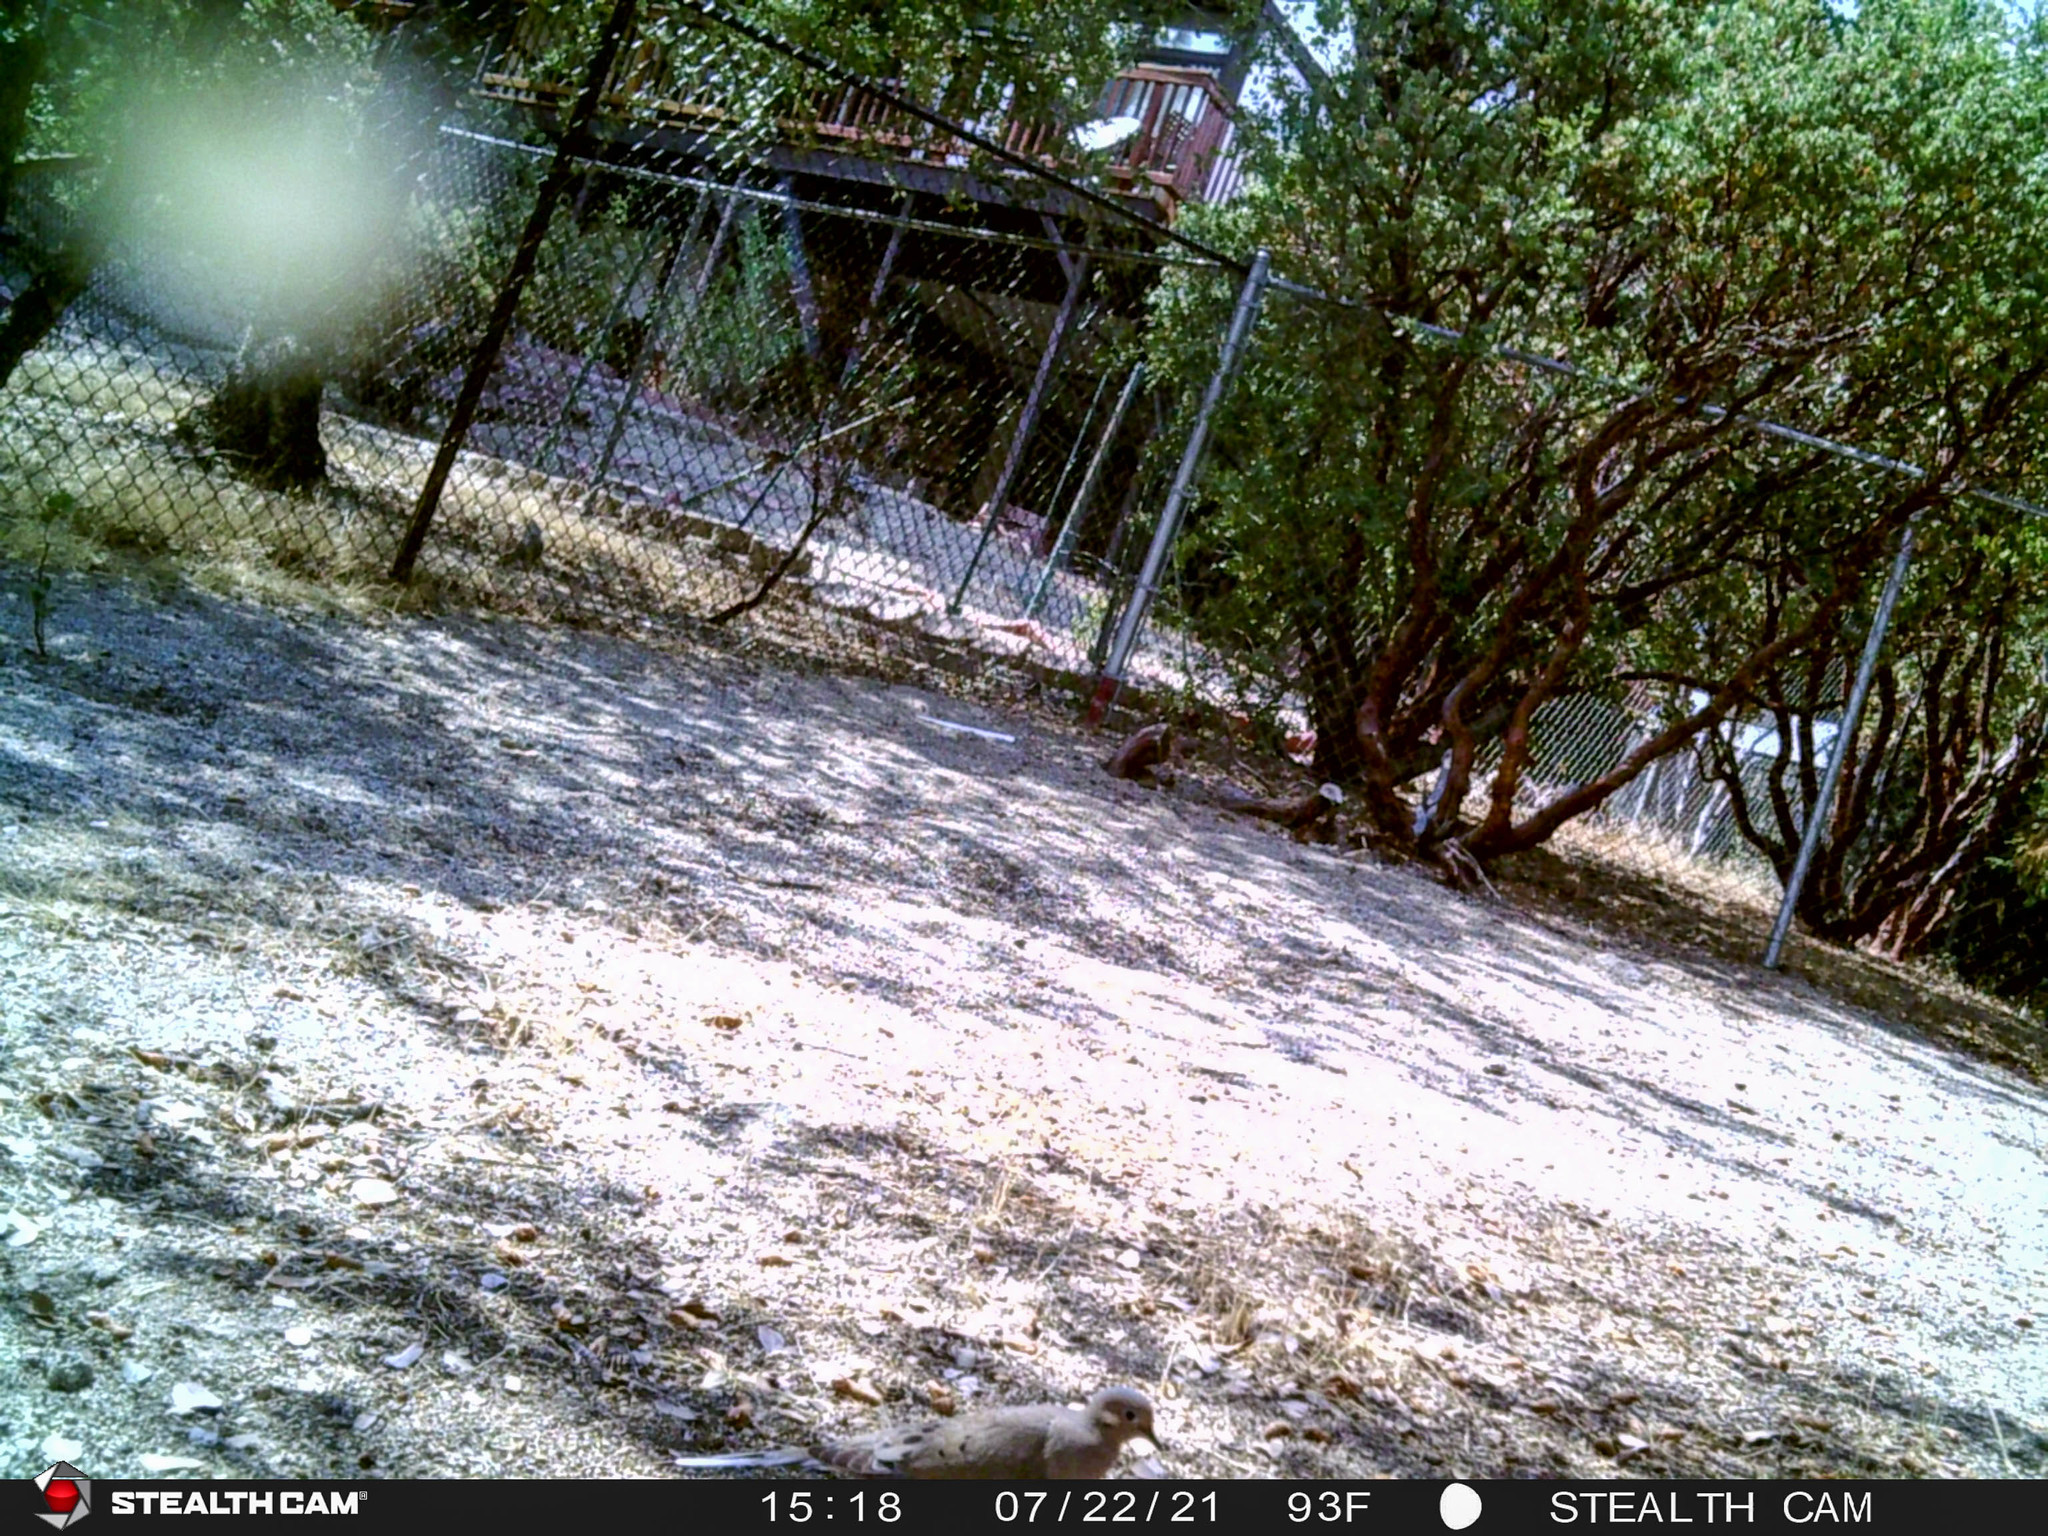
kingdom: Animalia
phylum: Chordata
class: Aves
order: Columbiformes
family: Columbidae
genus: Zenaida
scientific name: Zenaida macroura
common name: Mourning dove
